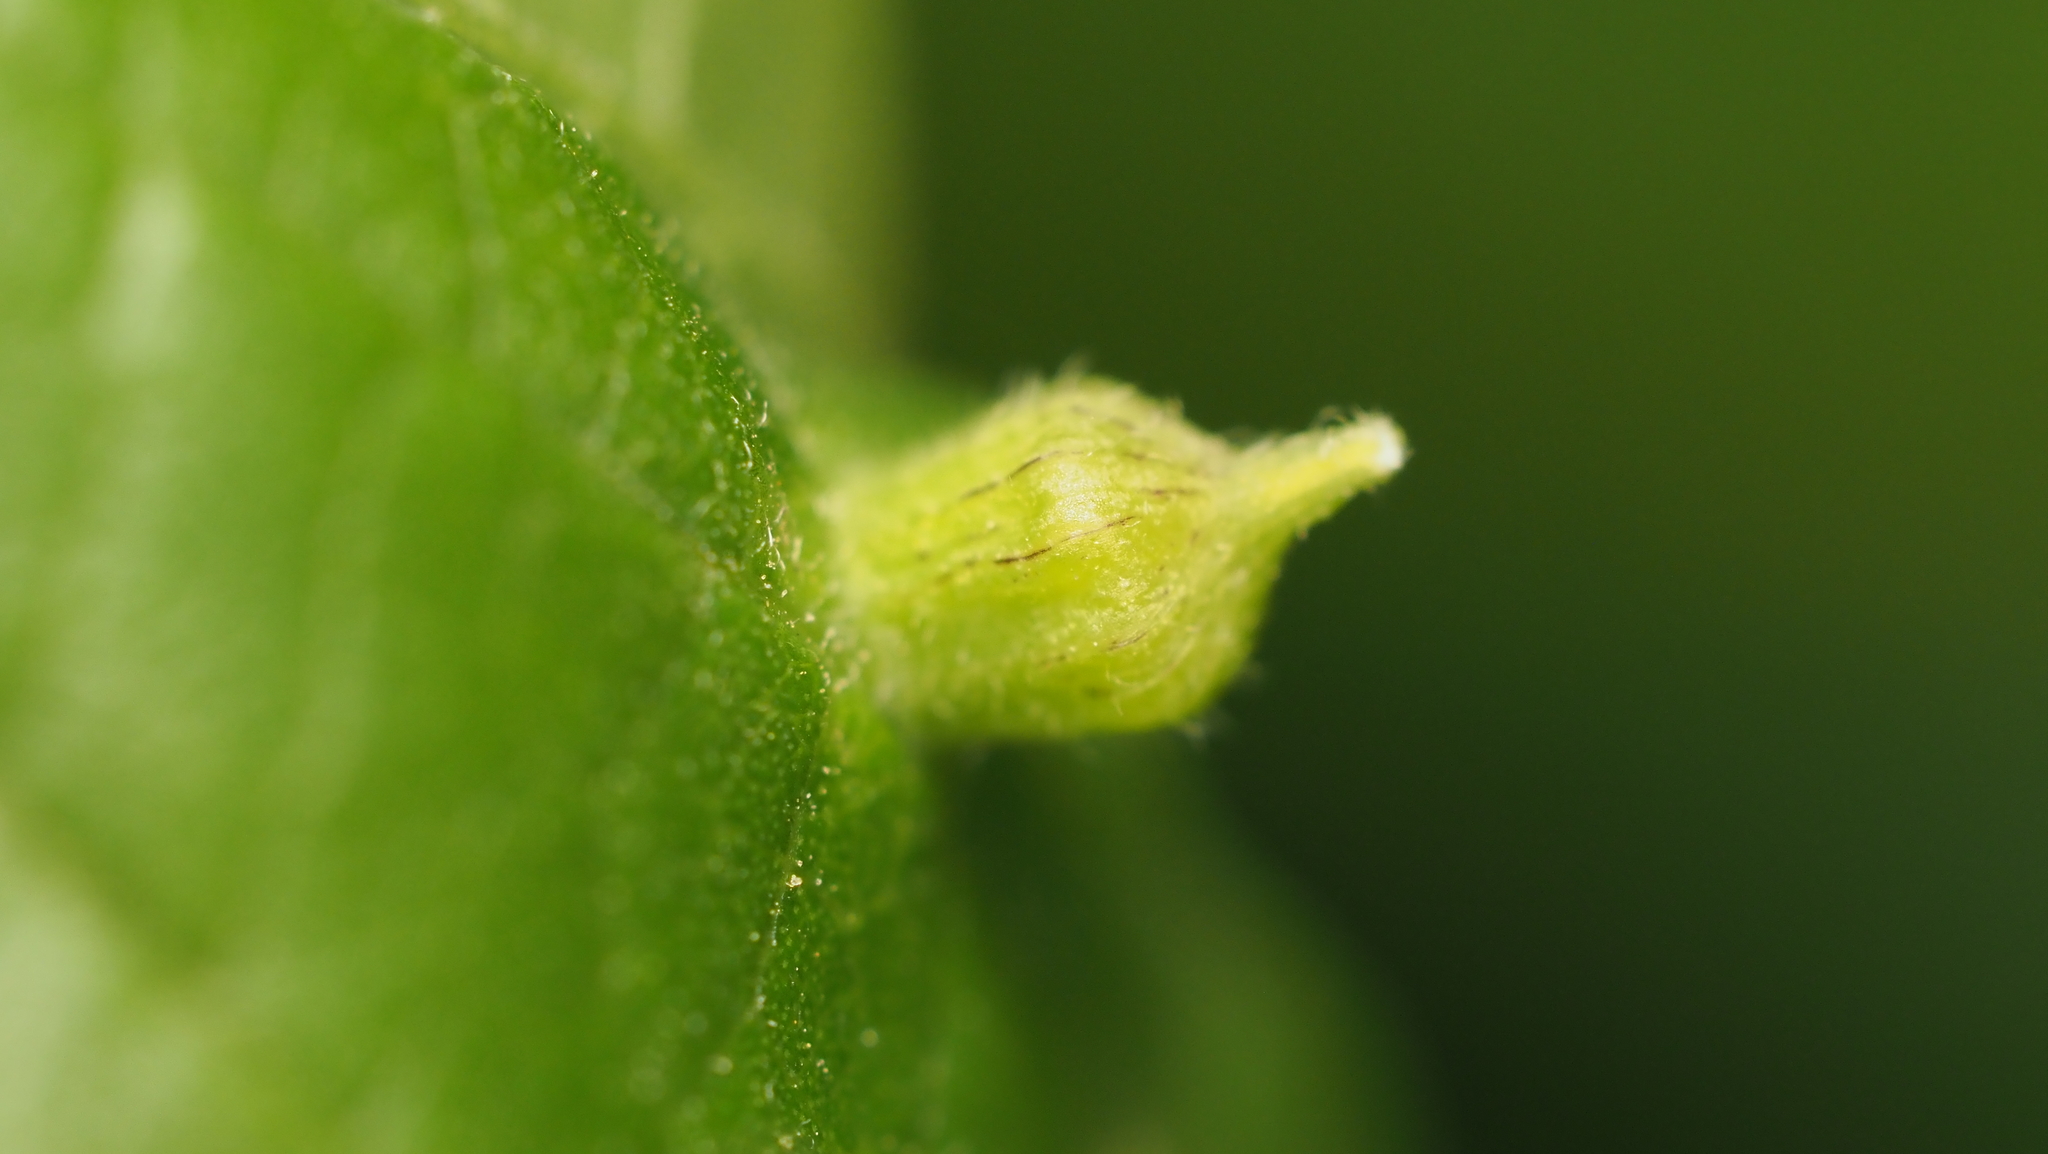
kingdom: Animalia
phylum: Arthropoda
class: Insecta
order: Diptera
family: Cecidomyiidae
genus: Celticecis
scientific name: Celticecis ramicola
